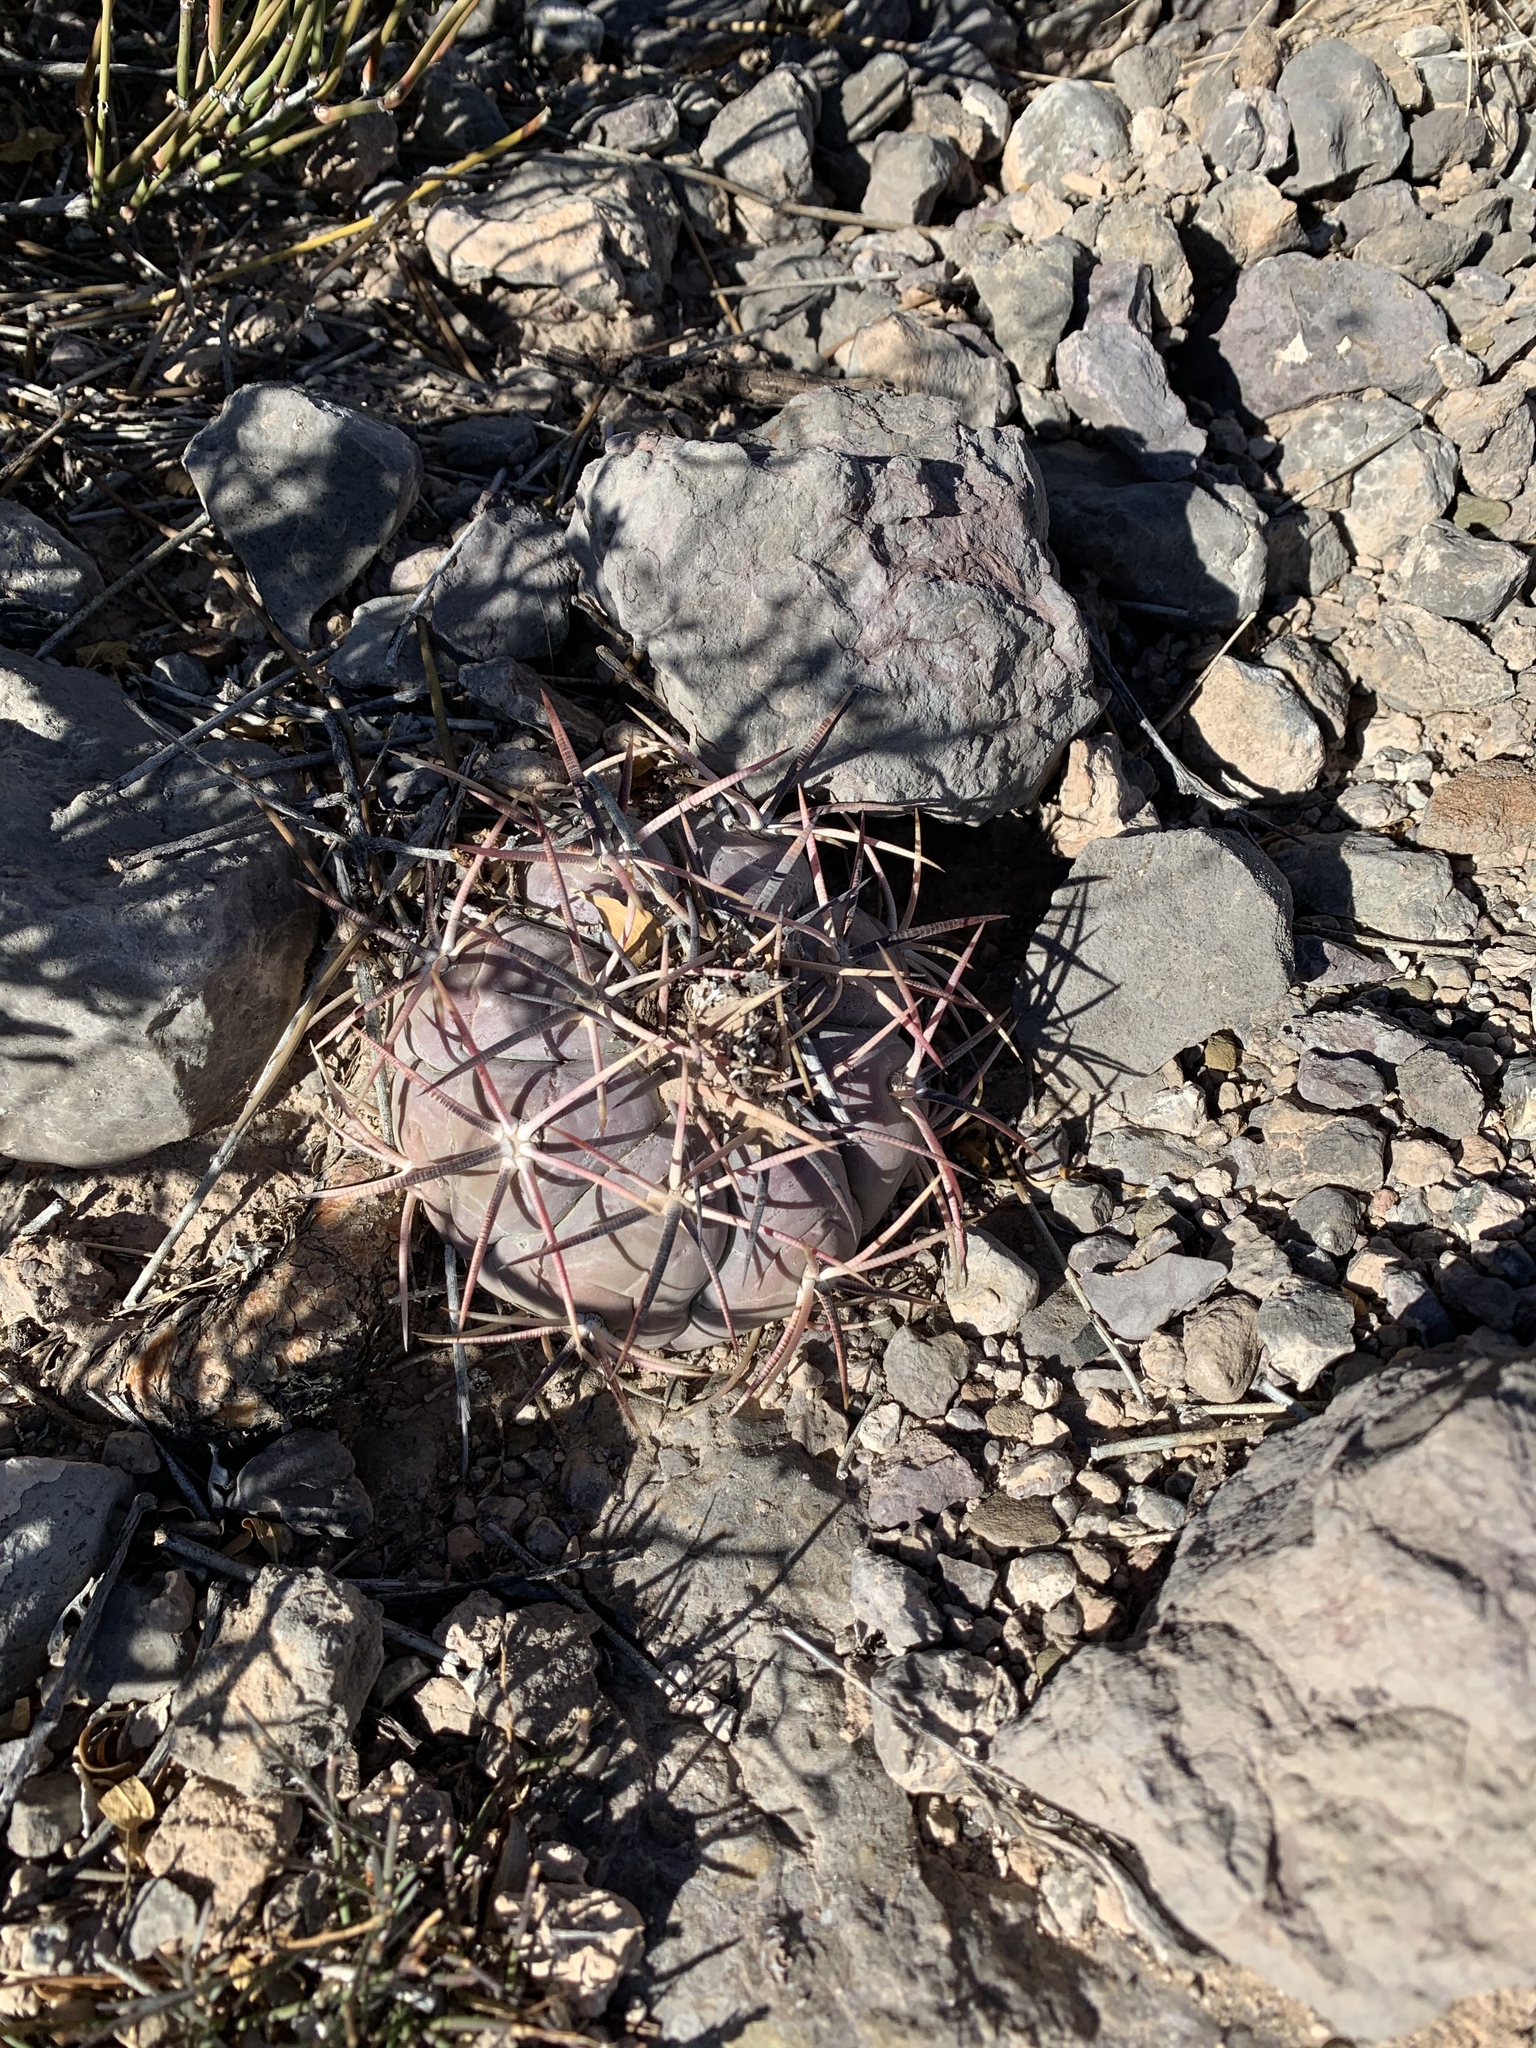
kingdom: Plantae
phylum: Tracheophyta
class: Magnoliopsida
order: Caryophyllales
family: Cactaceae
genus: Echinocactus
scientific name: Echinocactus horizonthalonius
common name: Devilshead
